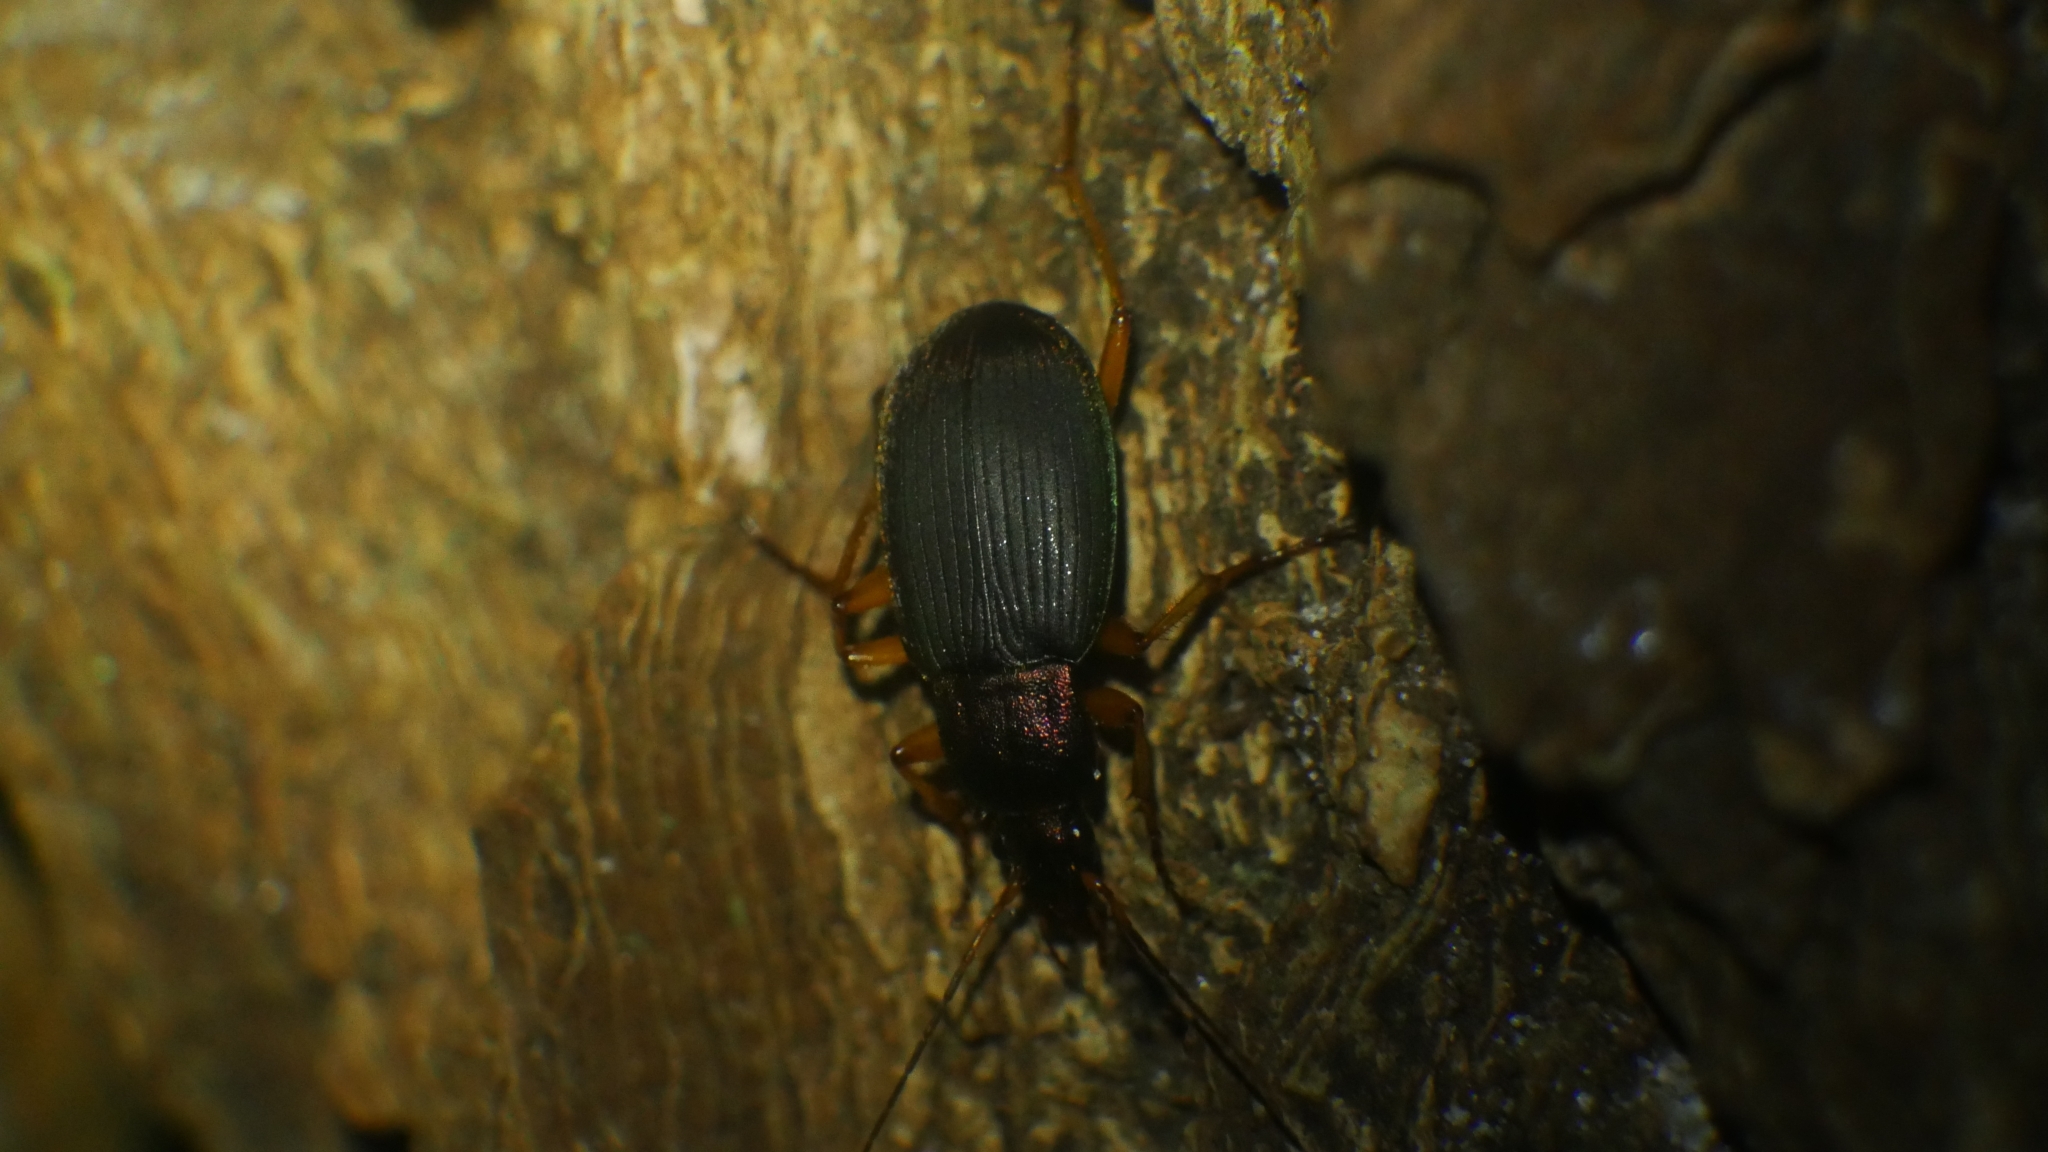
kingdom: Animalia
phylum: Arthropoda
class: Insecta
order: Coleoptera
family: Carabidae
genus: Chlaenius
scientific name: Chlaenius aestivus
